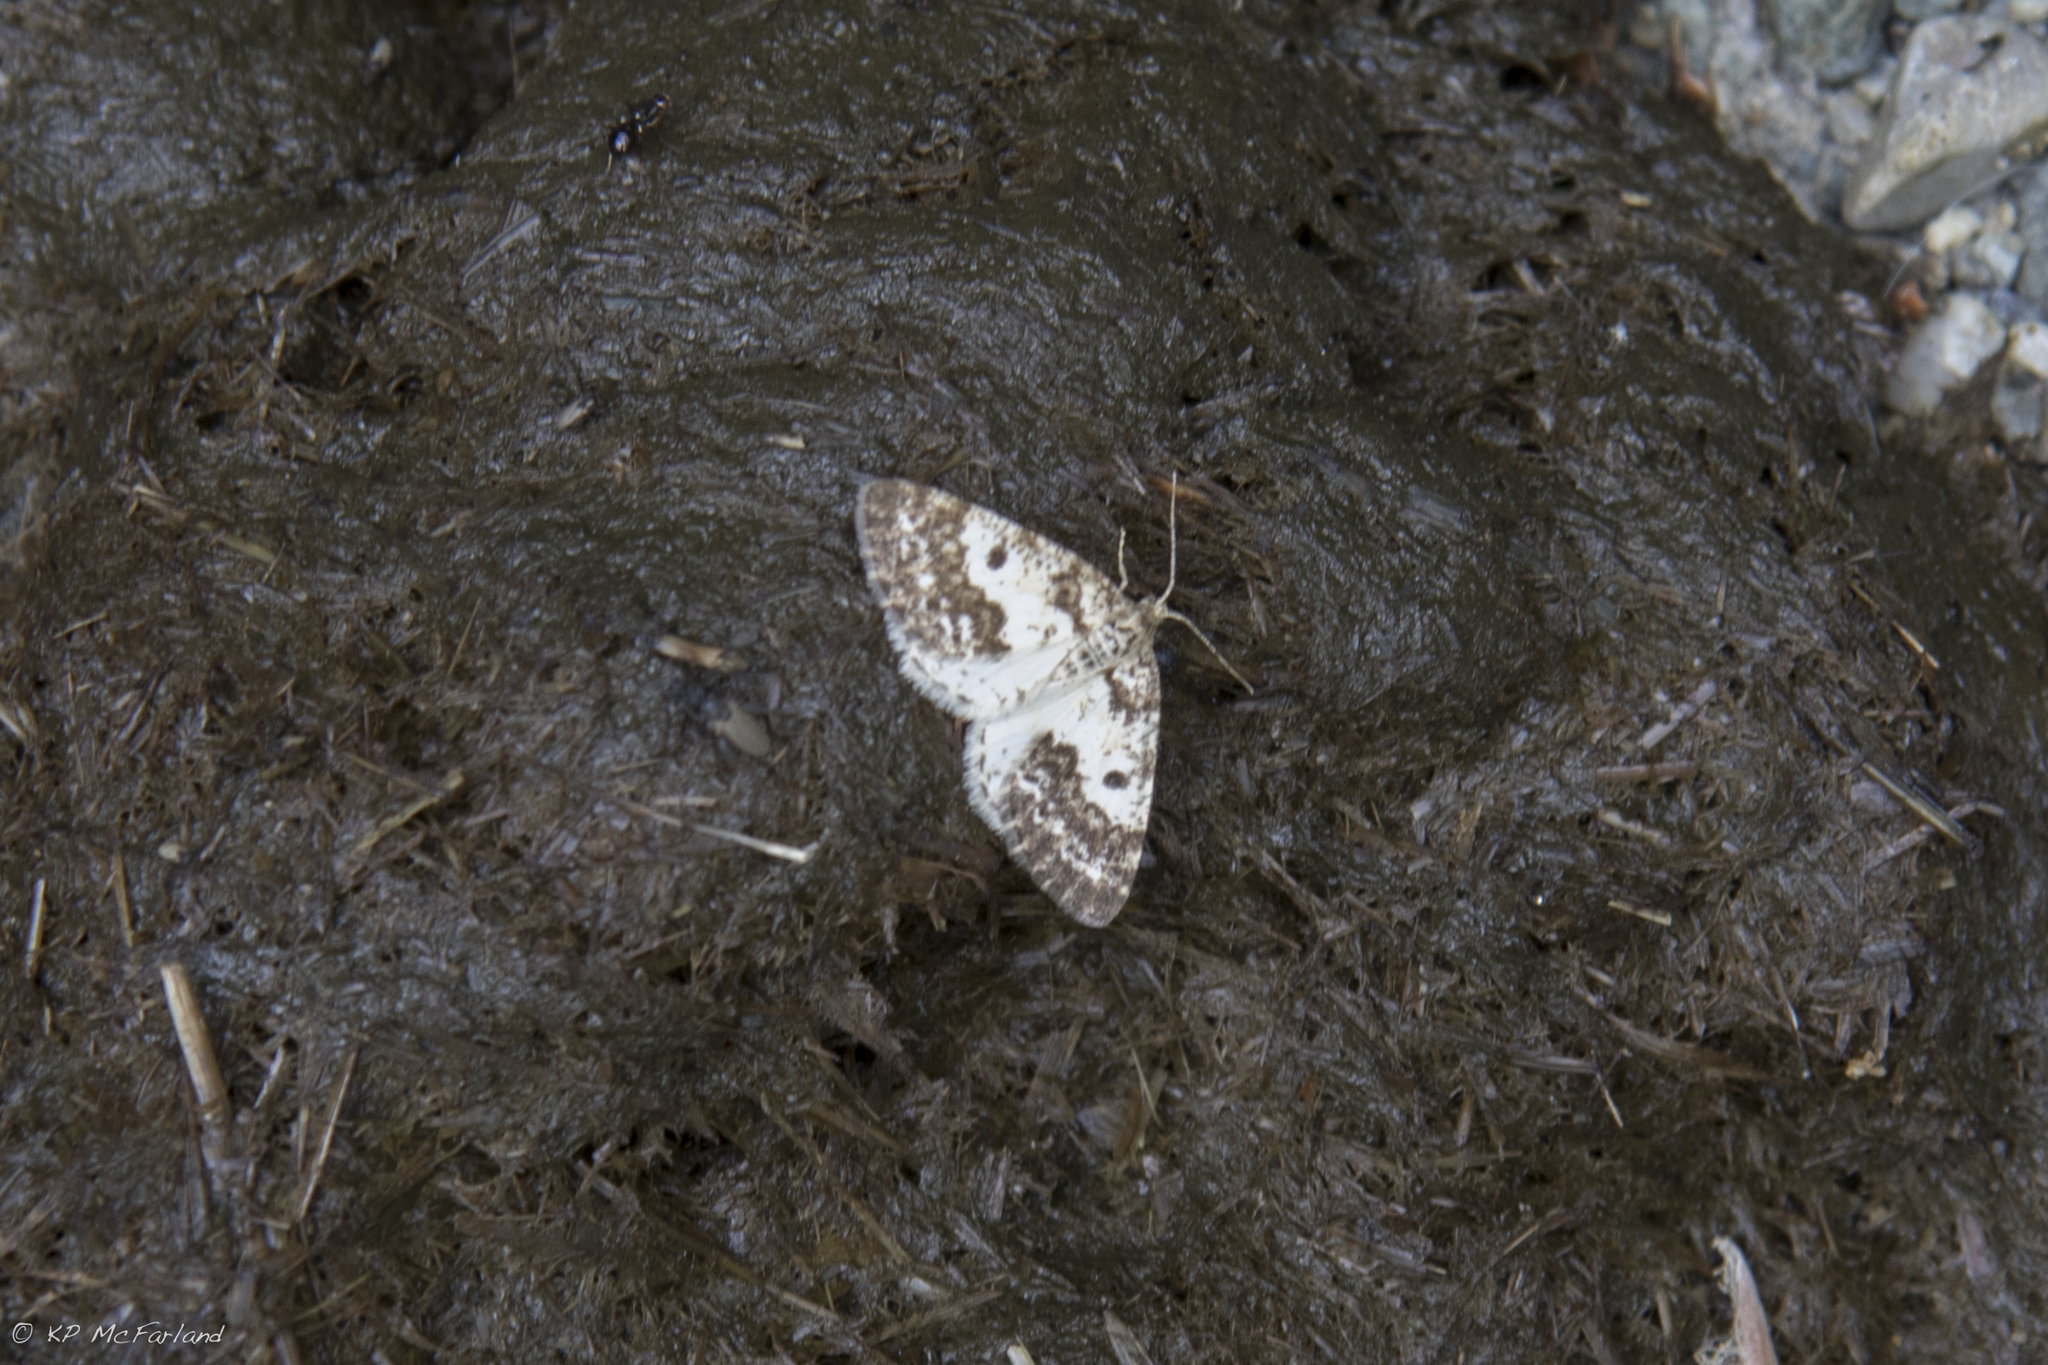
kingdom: Animalia
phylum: Arthropoda
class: Insecta
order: Lepidoptera
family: Geometridae
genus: Eufidonia
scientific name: Eufidonia notataria
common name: Powder moth
